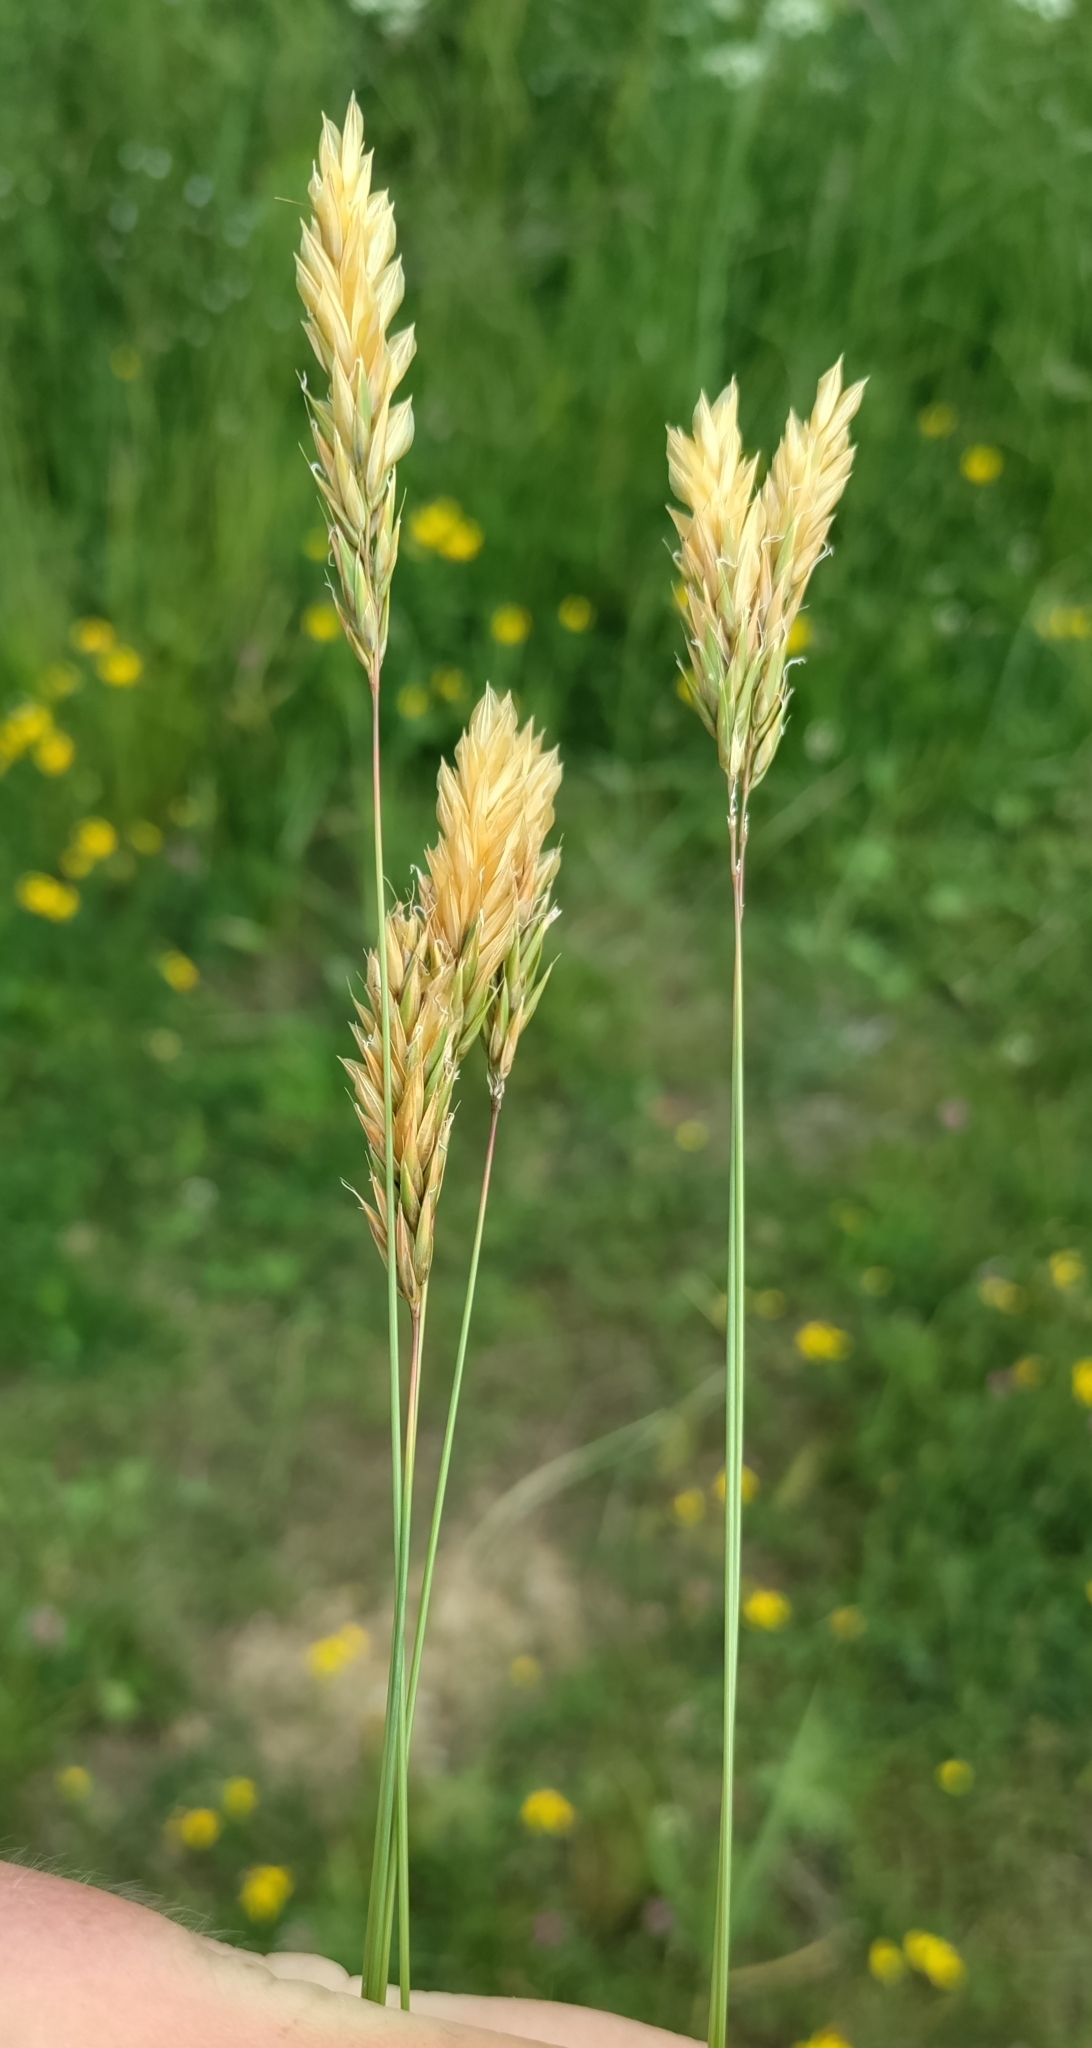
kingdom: Plantae
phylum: Tracheophyta
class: Liliopsida
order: Poales
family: Poaceae
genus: Anthoxanthum
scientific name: Anthoxanthum odoratum
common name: Sweet vernalgrass
